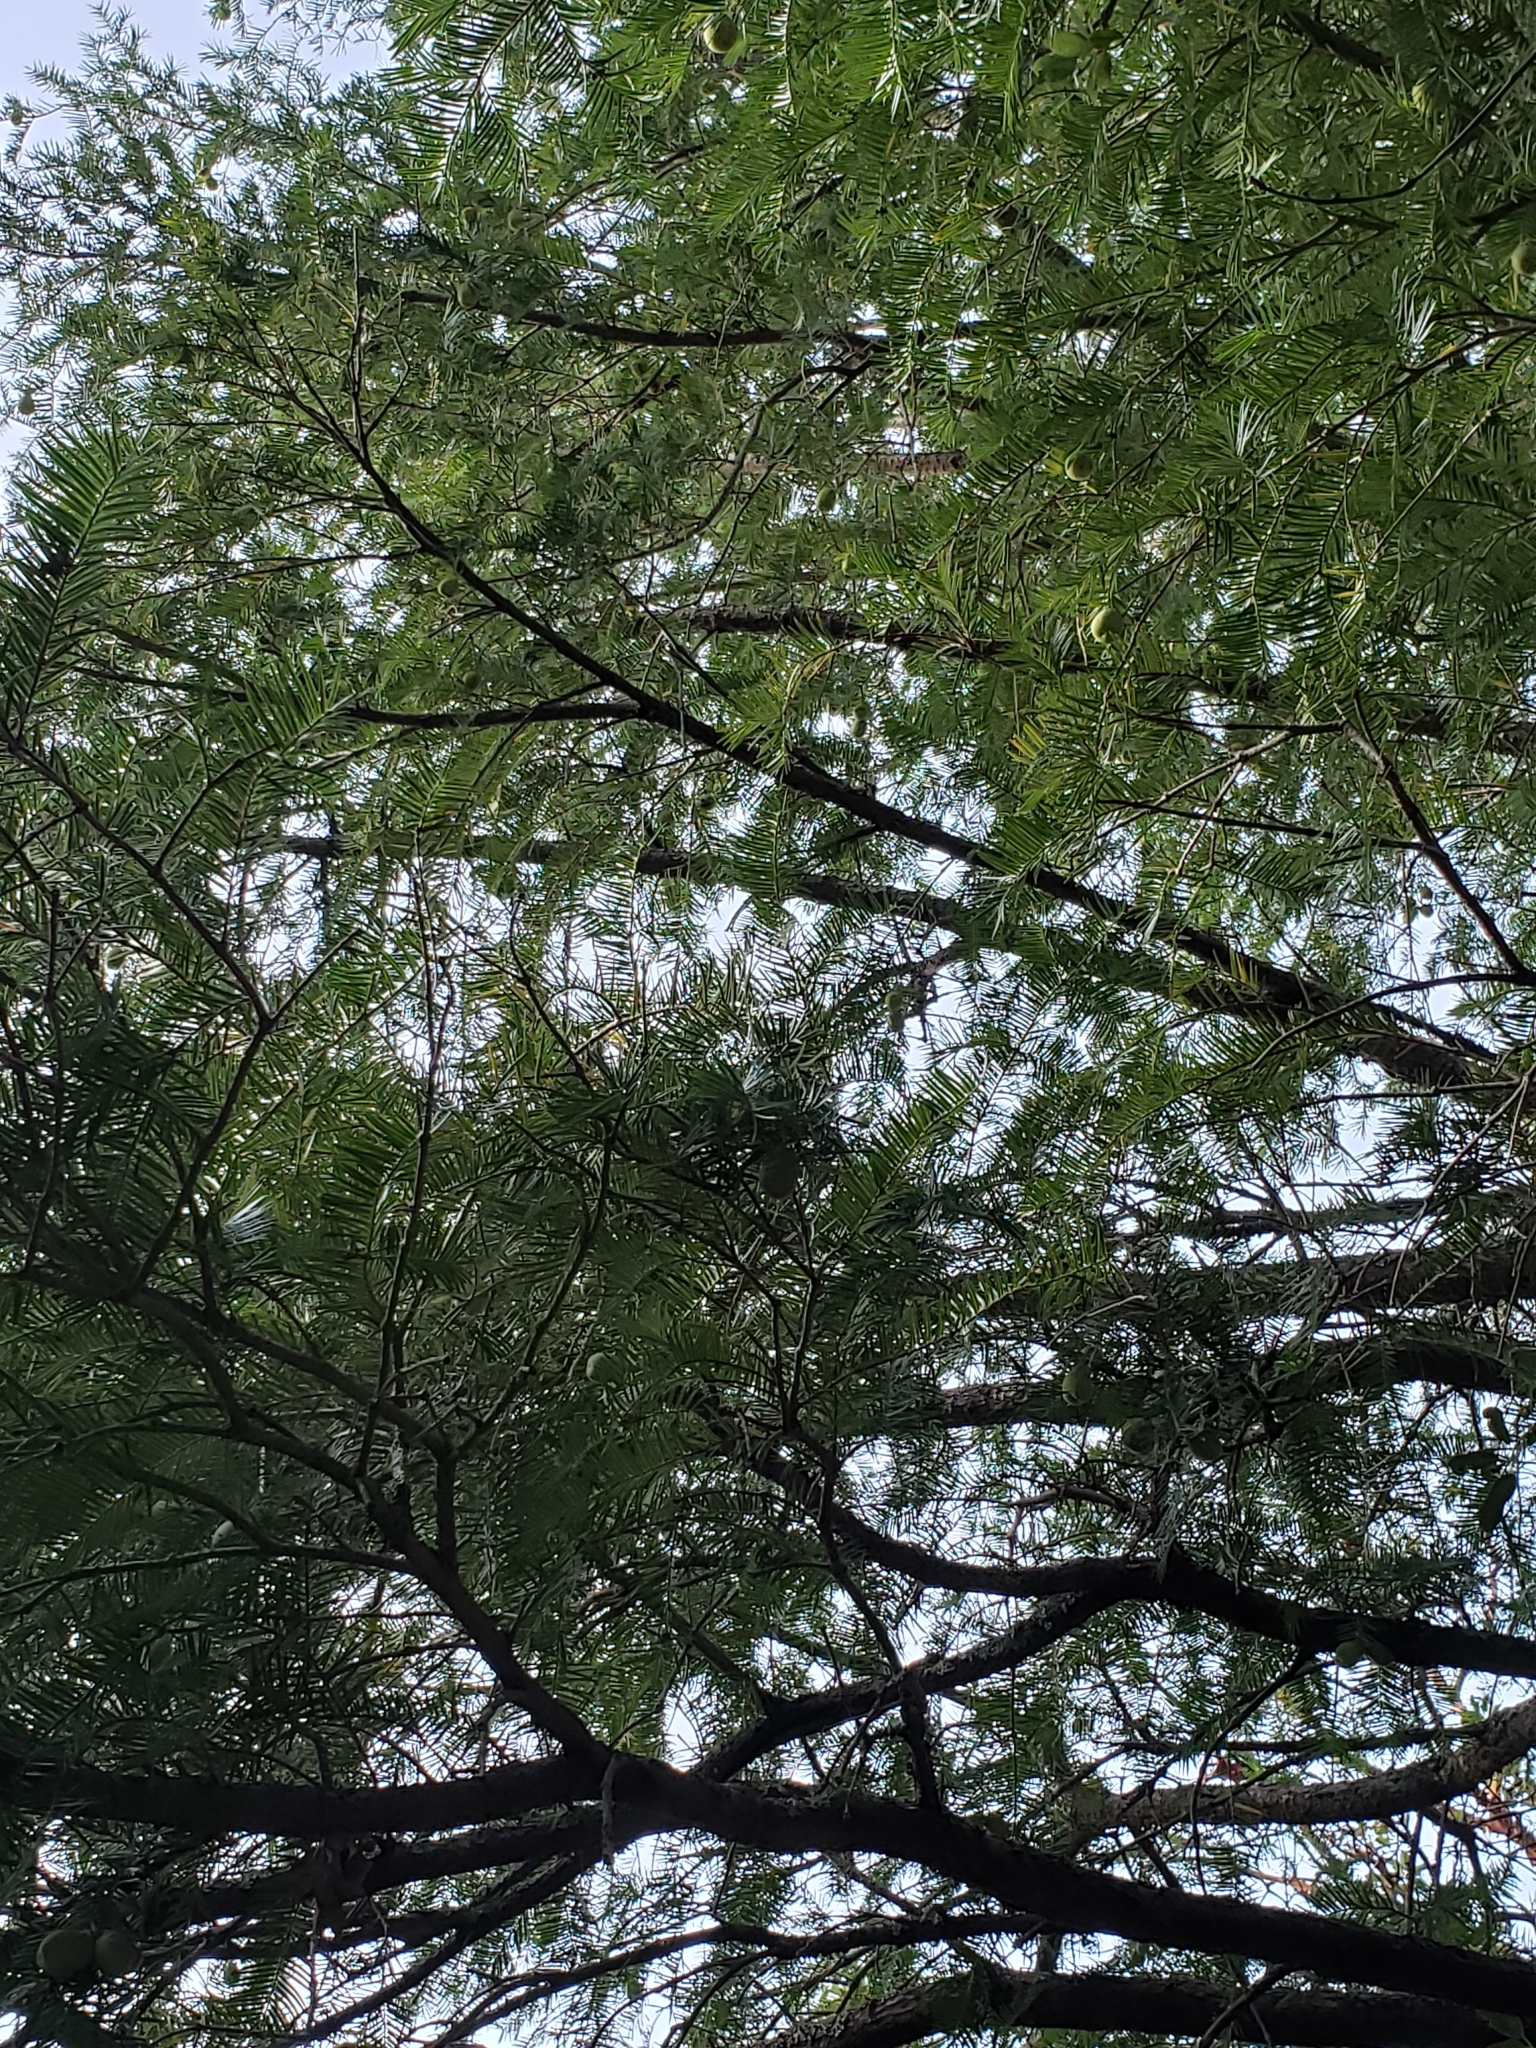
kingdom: Plantae
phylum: Tracheophyta
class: Pinopsida
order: Pinales
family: Taxaceae
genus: Torreya
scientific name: Torreya californica
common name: California torreya
